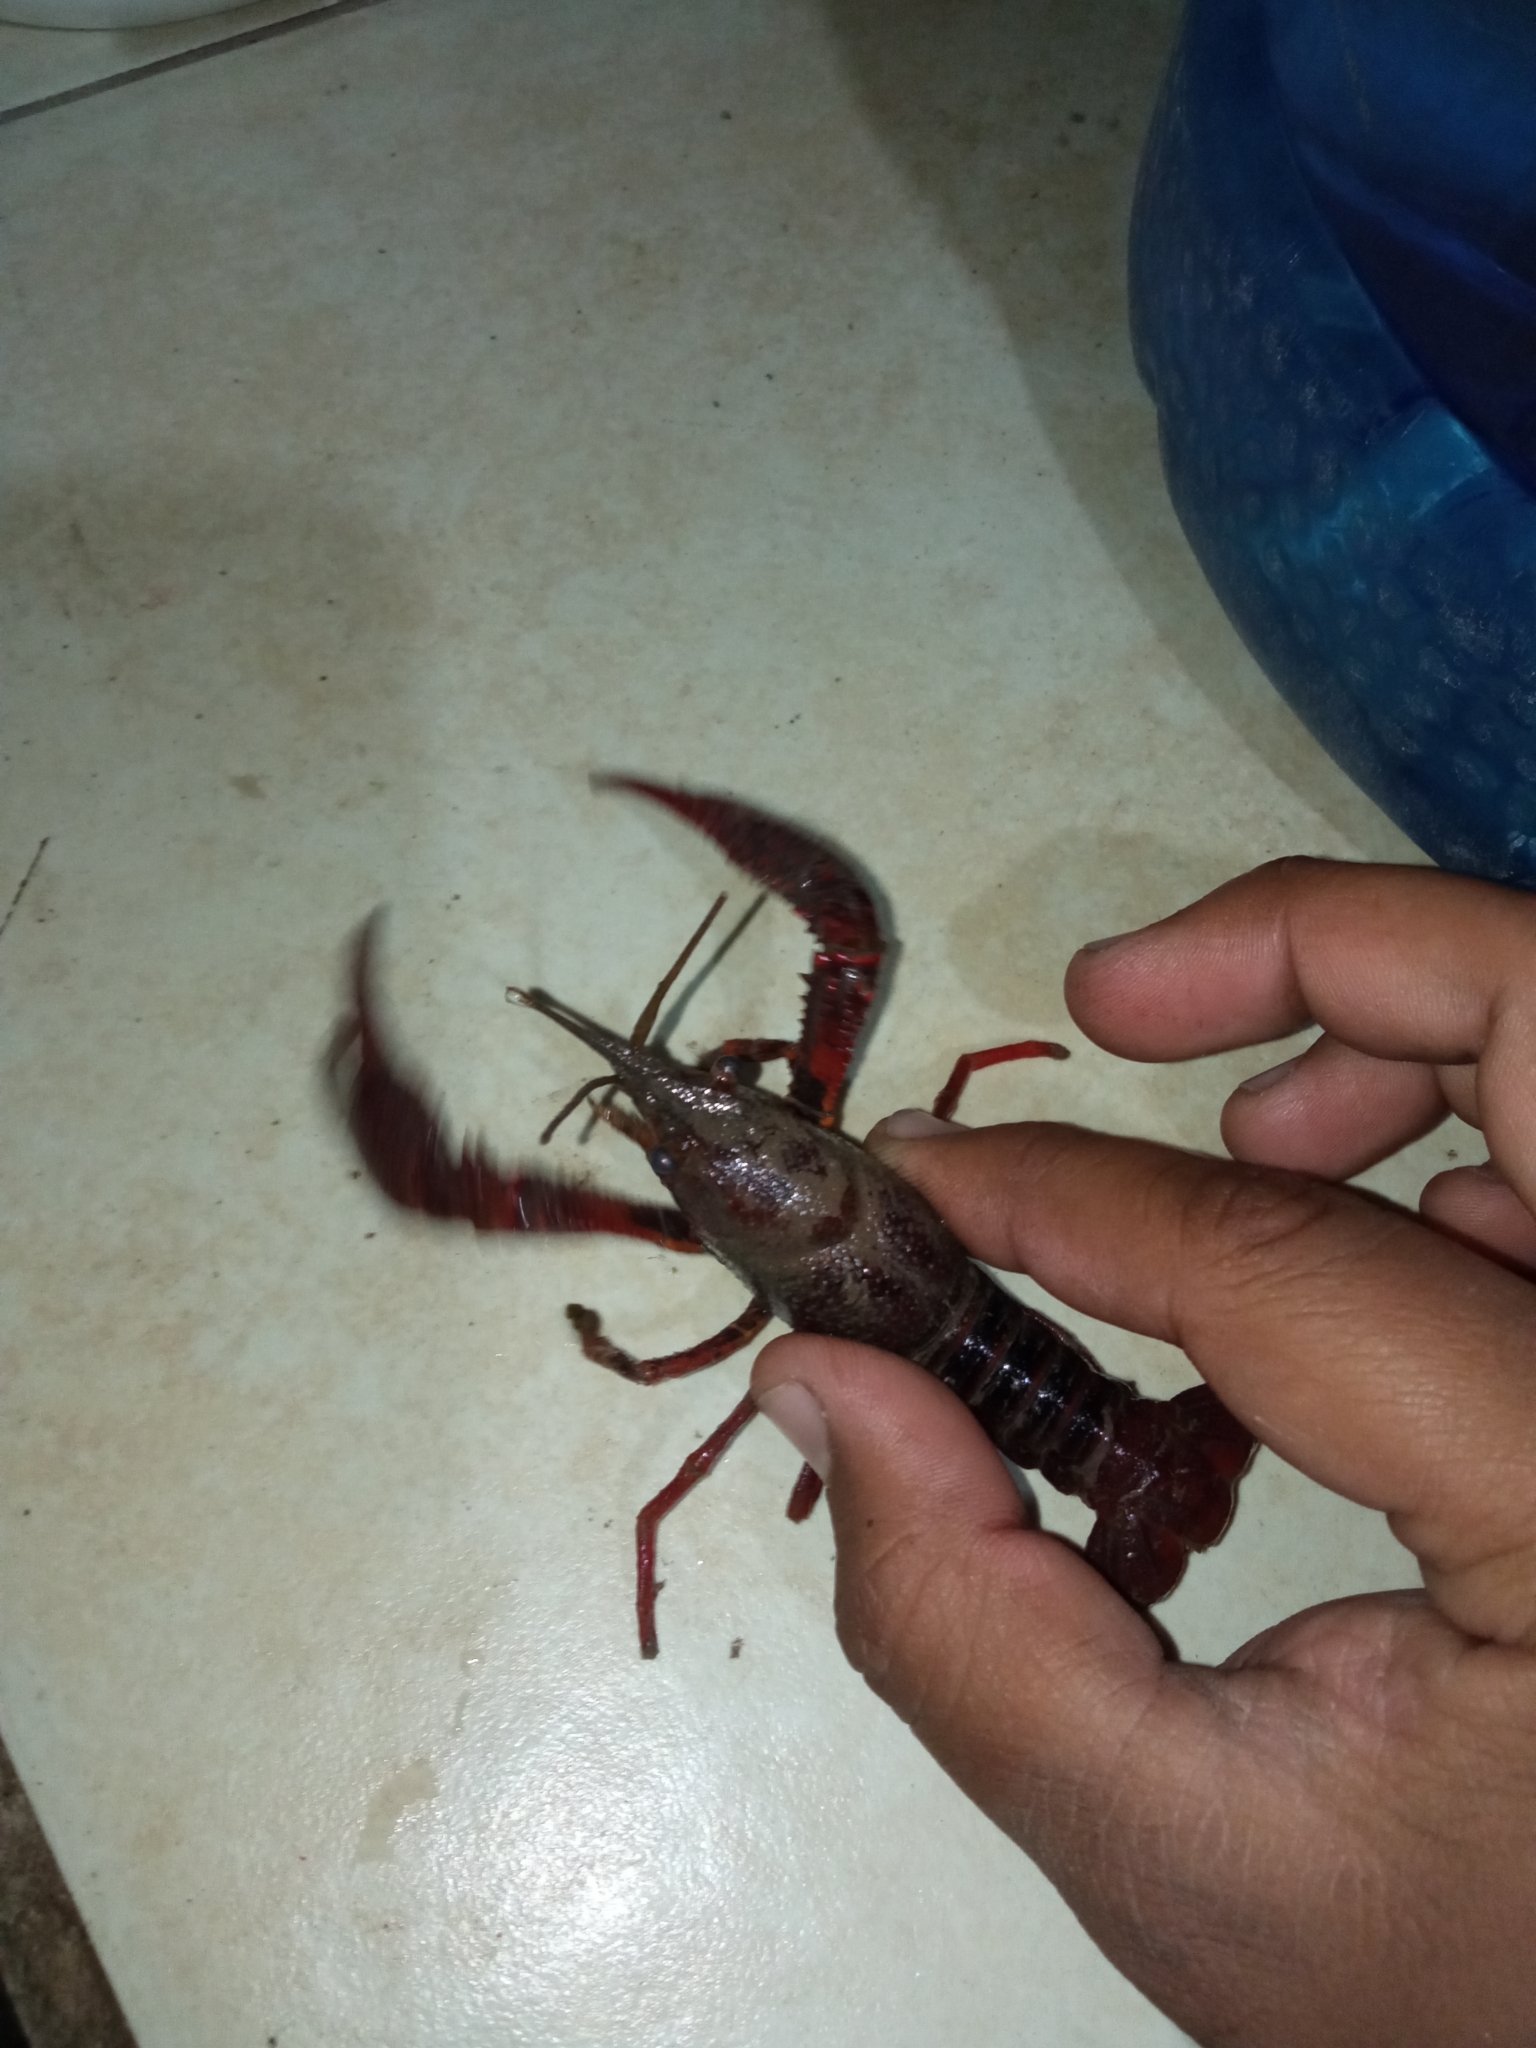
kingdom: Animalia
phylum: Arthropoda
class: Malacostraca
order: Decapoda
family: Cambaridae
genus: Procambarus
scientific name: Procambarus clarkii
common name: Red swamp crayfish
